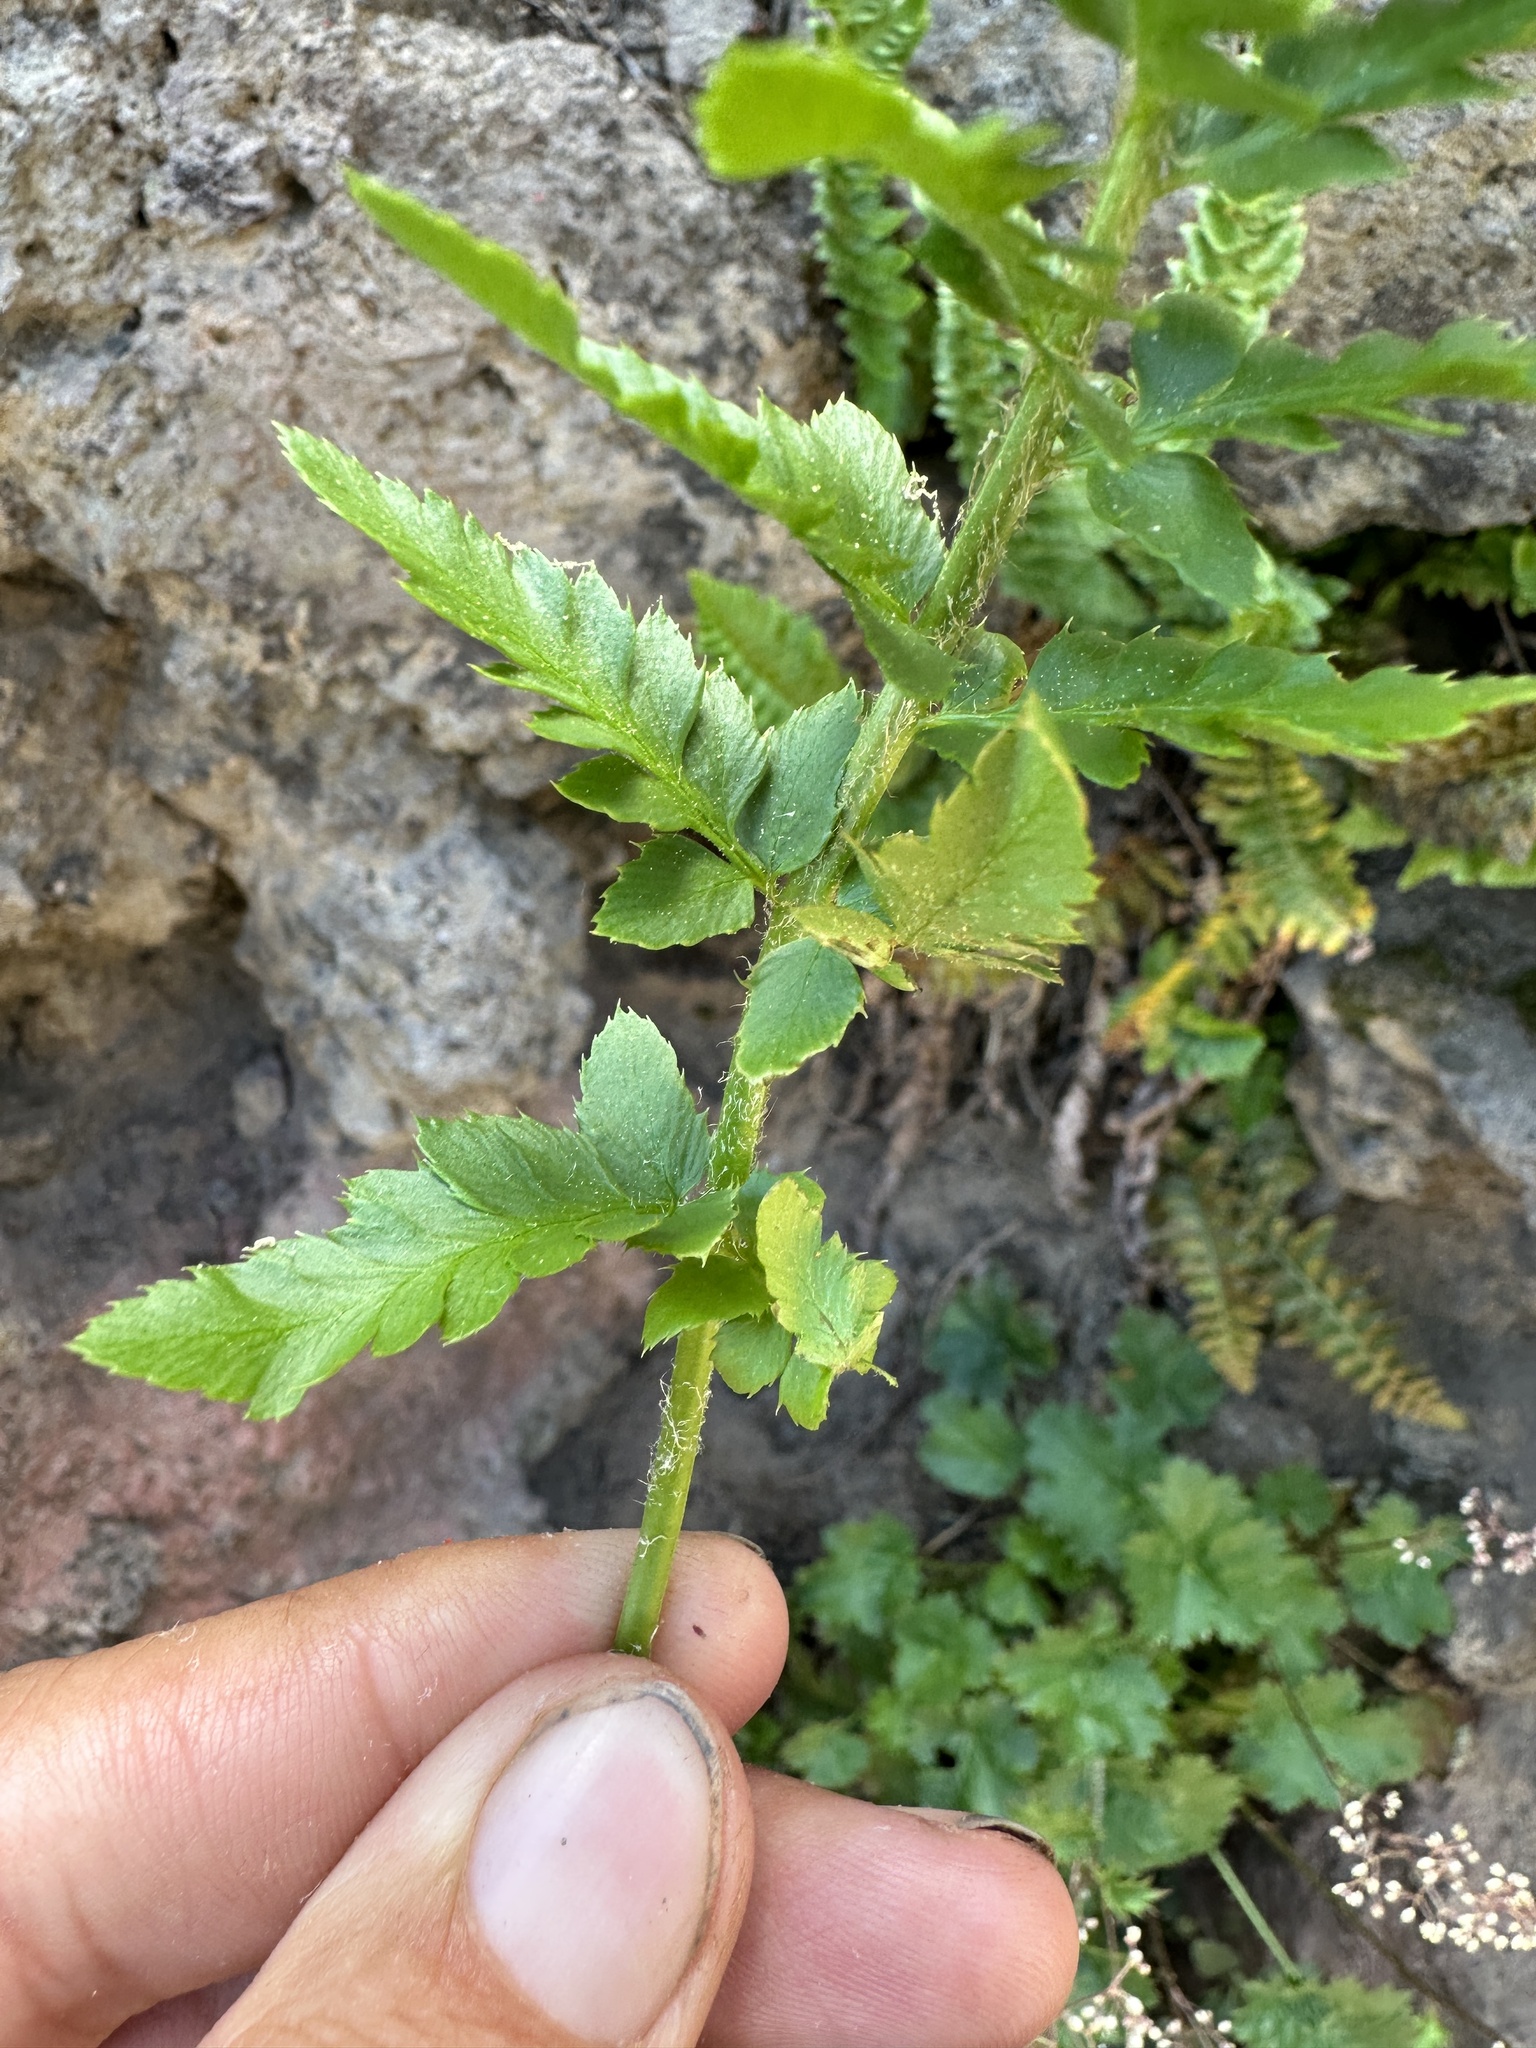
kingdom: Plantae
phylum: Tracheophyta
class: Polypodiopsida
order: Polypodiales
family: Dryopteridaceae
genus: Polystichum
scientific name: Polystichum scopulinum
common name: Eaton's shield fern
